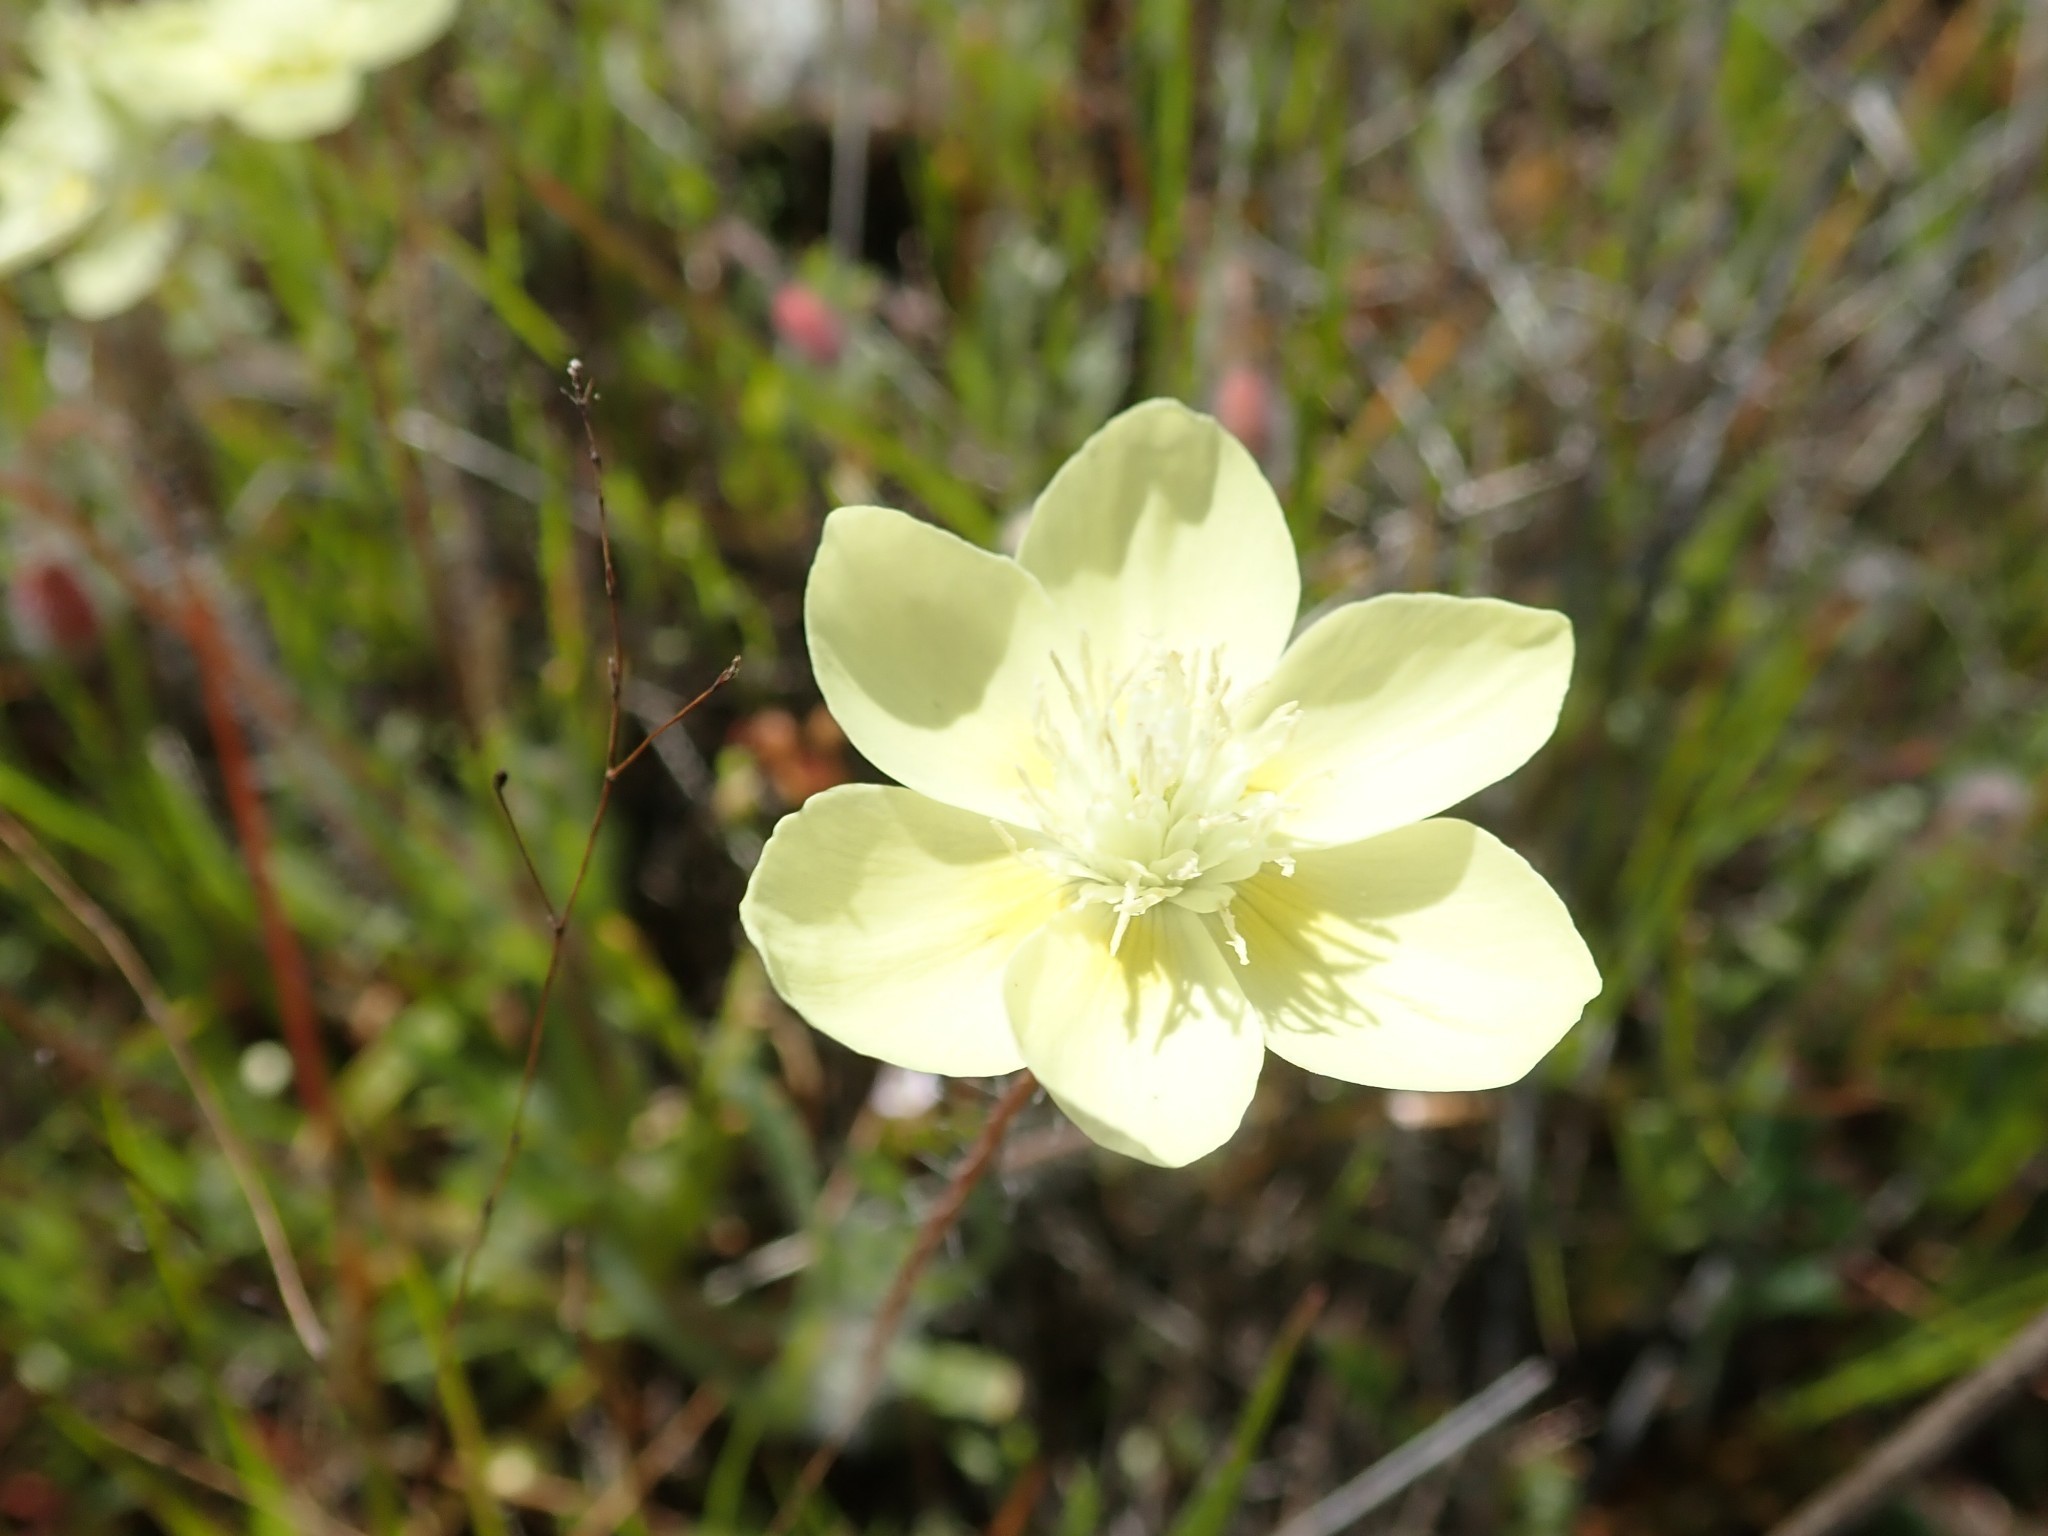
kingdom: Plantae
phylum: Tracheophyta
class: Magnoliopsida
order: Ranunculales
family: Papaveraceae
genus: Platystemon
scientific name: Platystemon californicus
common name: Cream-cups
